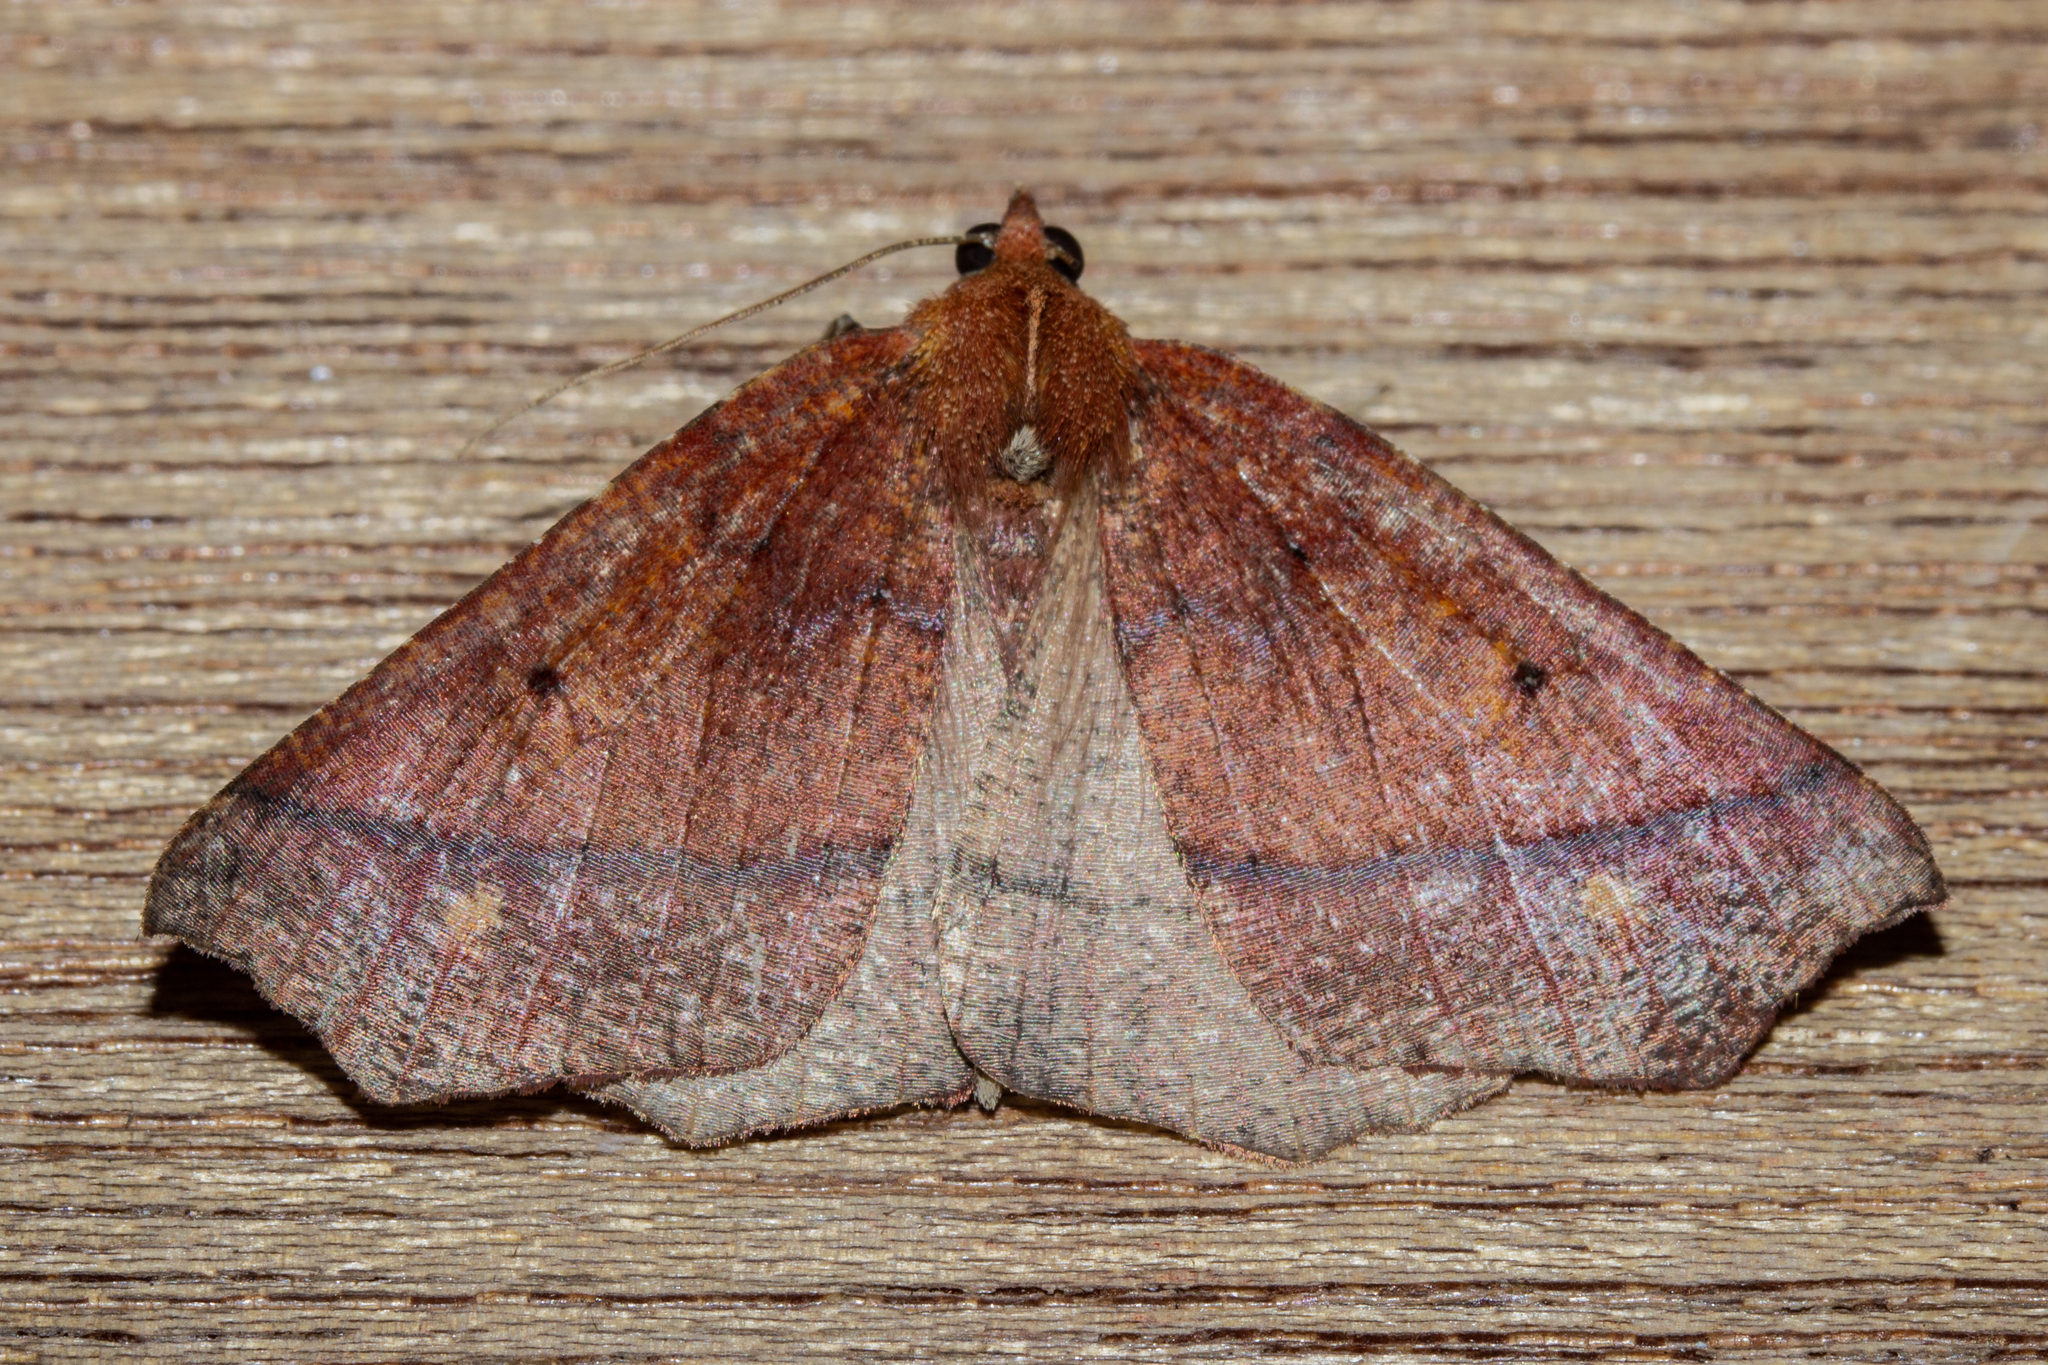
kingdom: Animalia
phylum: Arthropoda
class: Insecta
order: Lepidoptera
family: Geometridae
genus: Ischalis
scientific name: Ischalis nelsonaria
